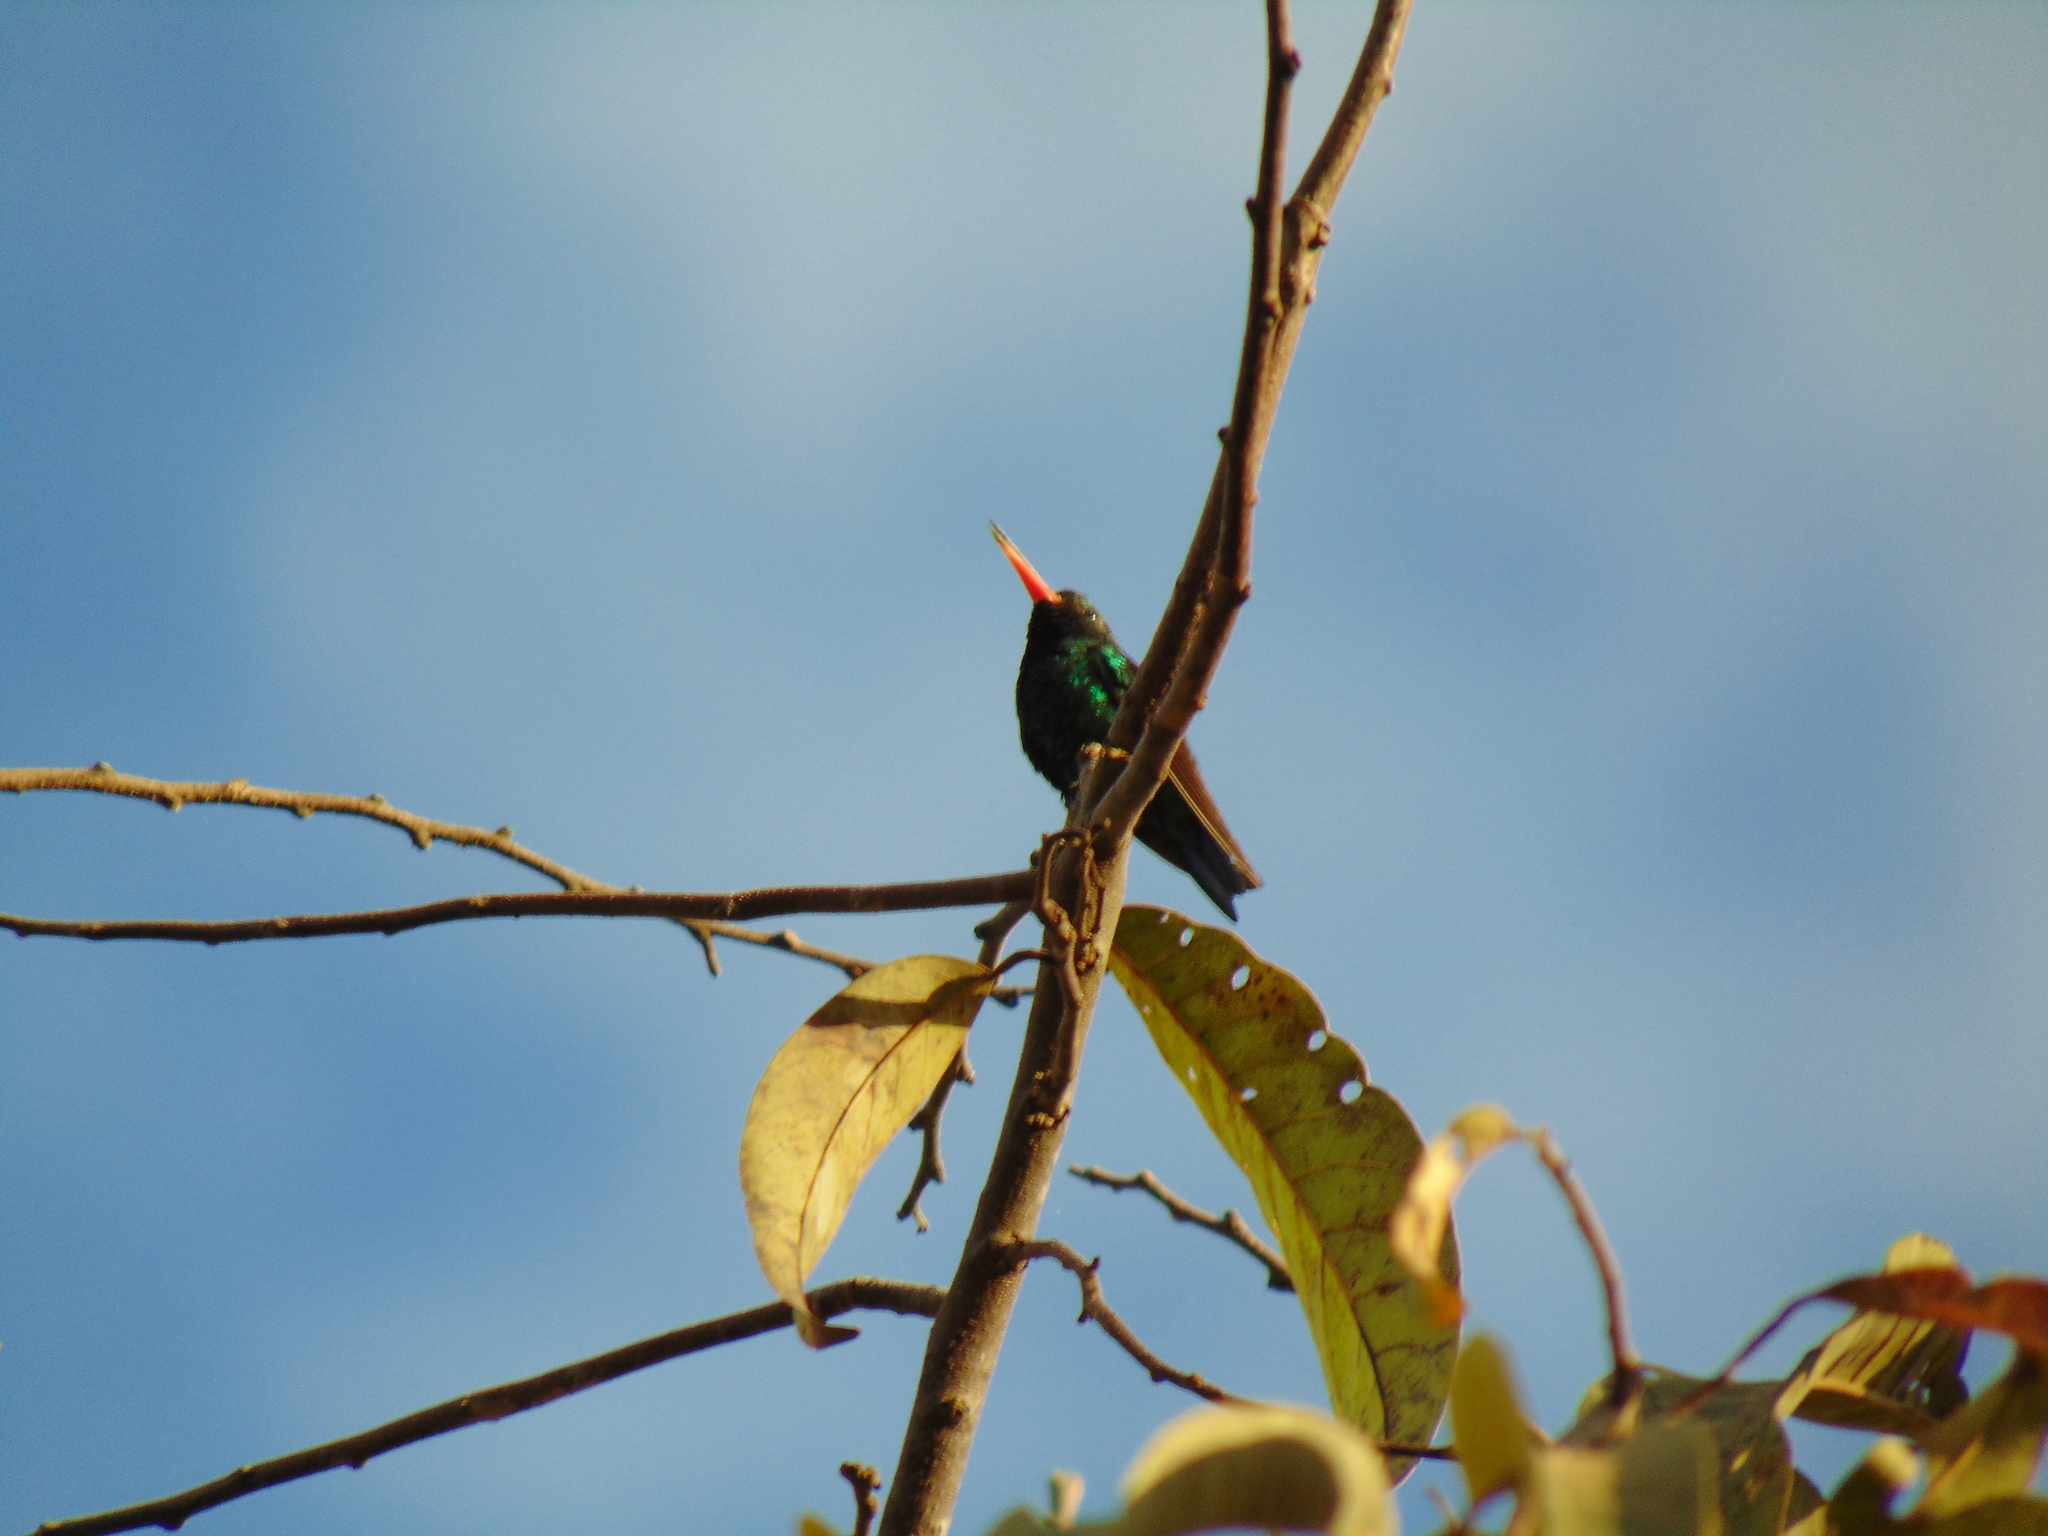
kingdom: Animalia
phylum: Chordata
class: Aves
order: Apodiformes
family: Trochilidae
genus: Chlorostilbon
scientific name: Chlorostilbon lucidus
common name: Glittering-bellied emerald
